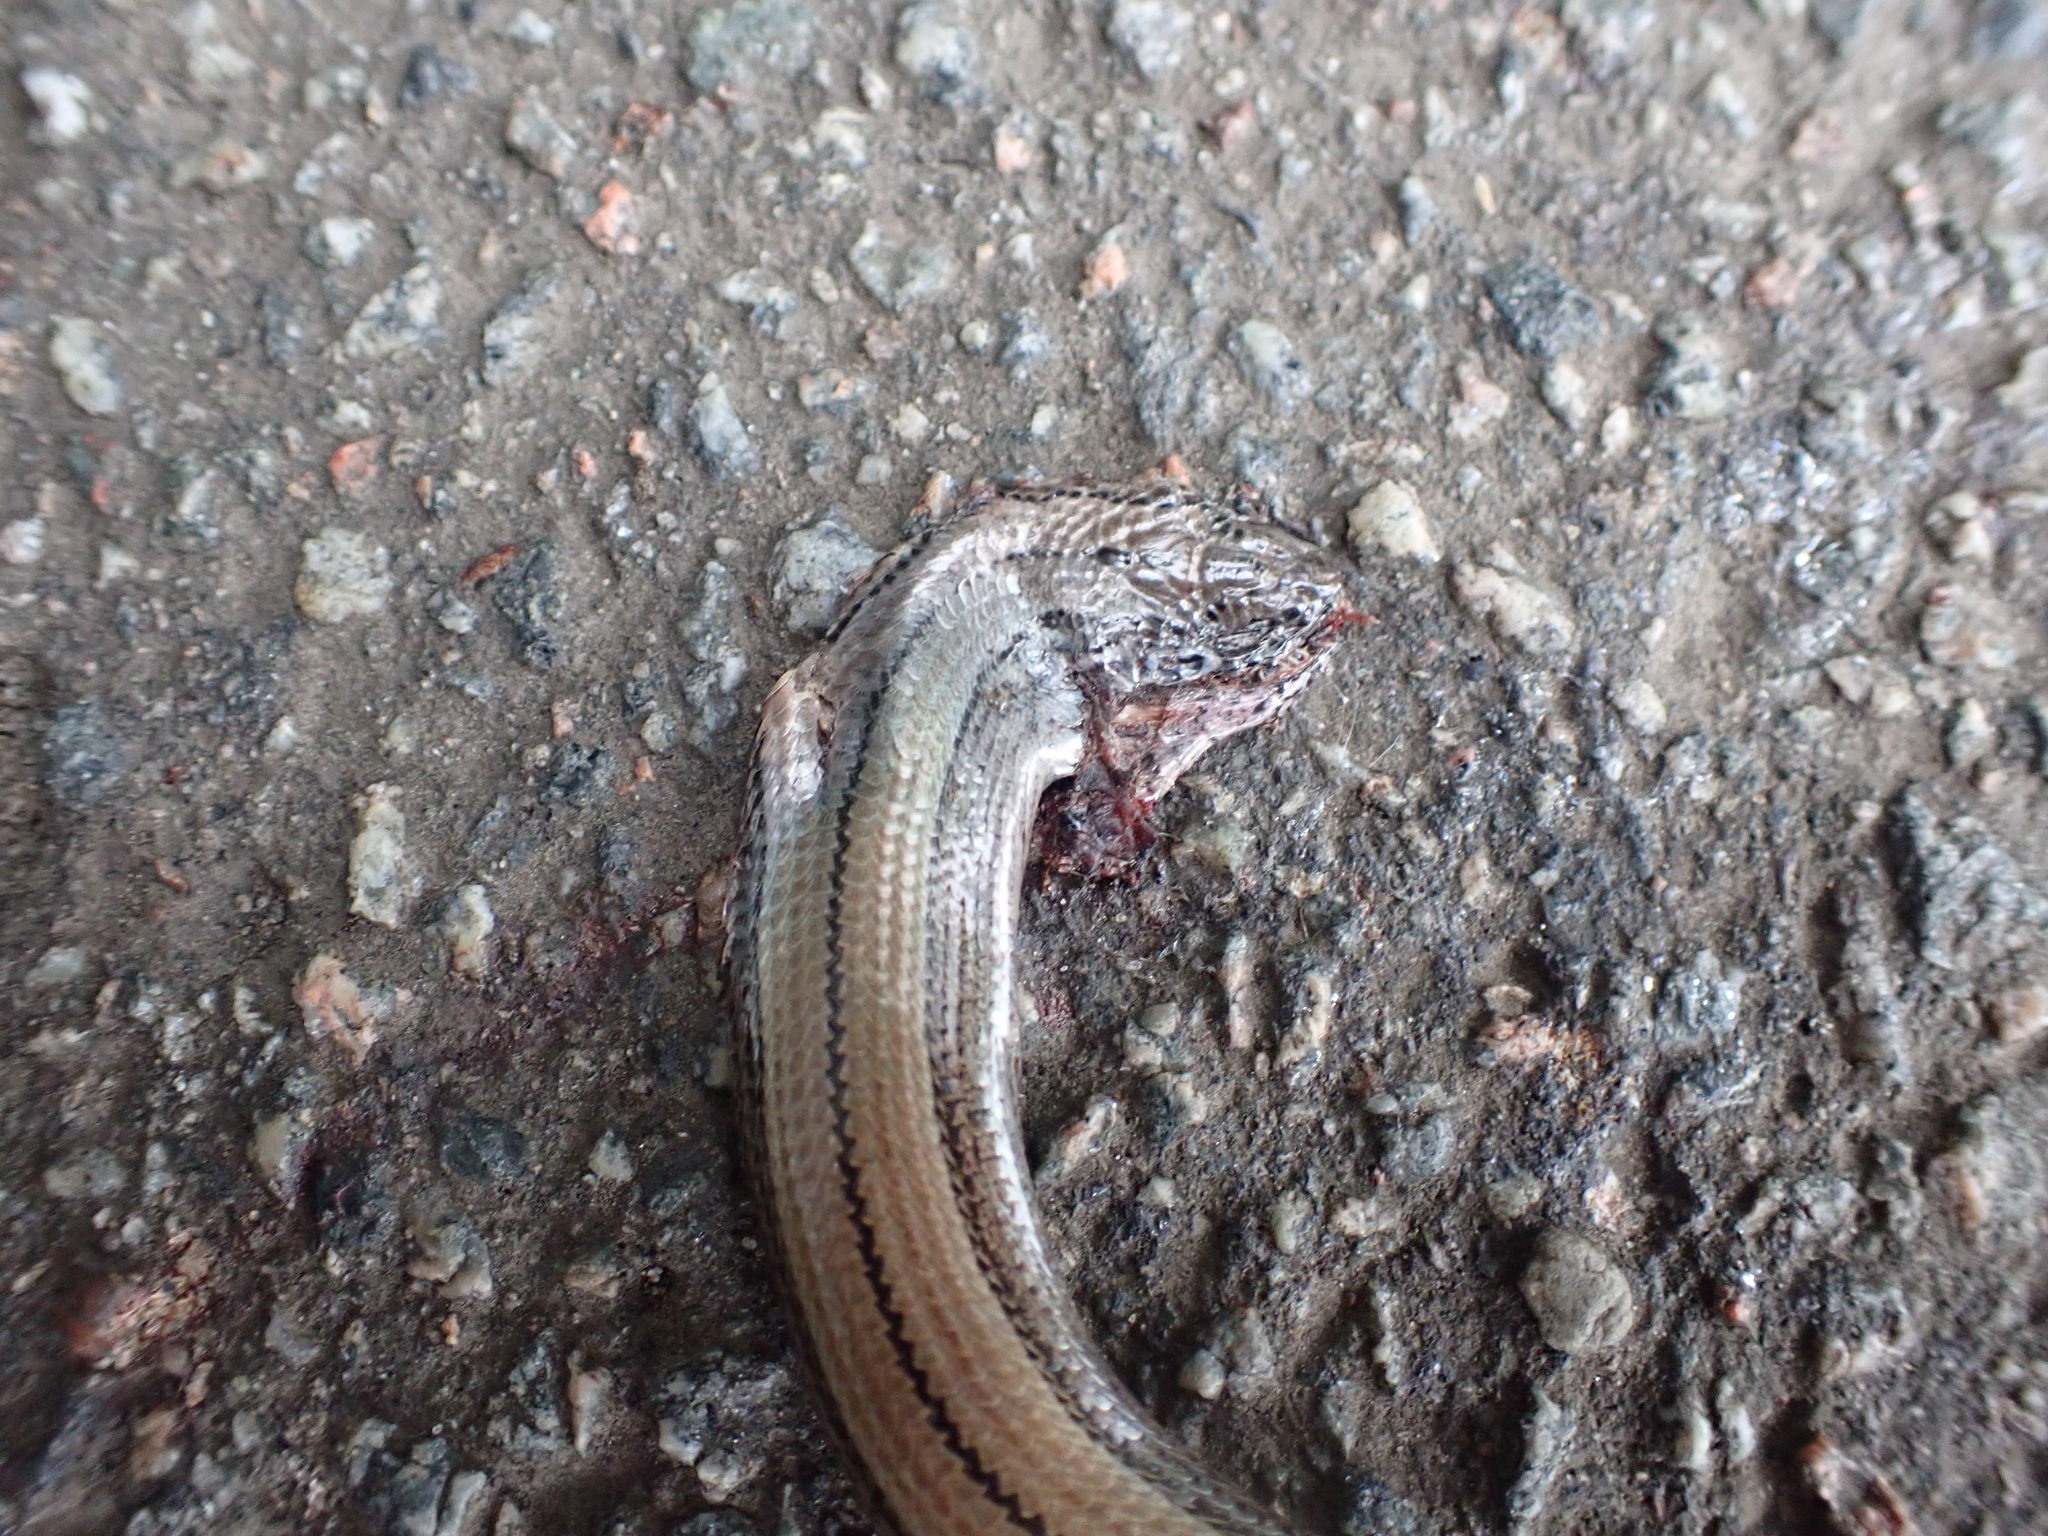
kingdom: Animalia
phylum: Chordata
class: Squamata
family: Anguidae
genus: Anguis
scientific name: Anguis fragilis
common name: Slow worm
